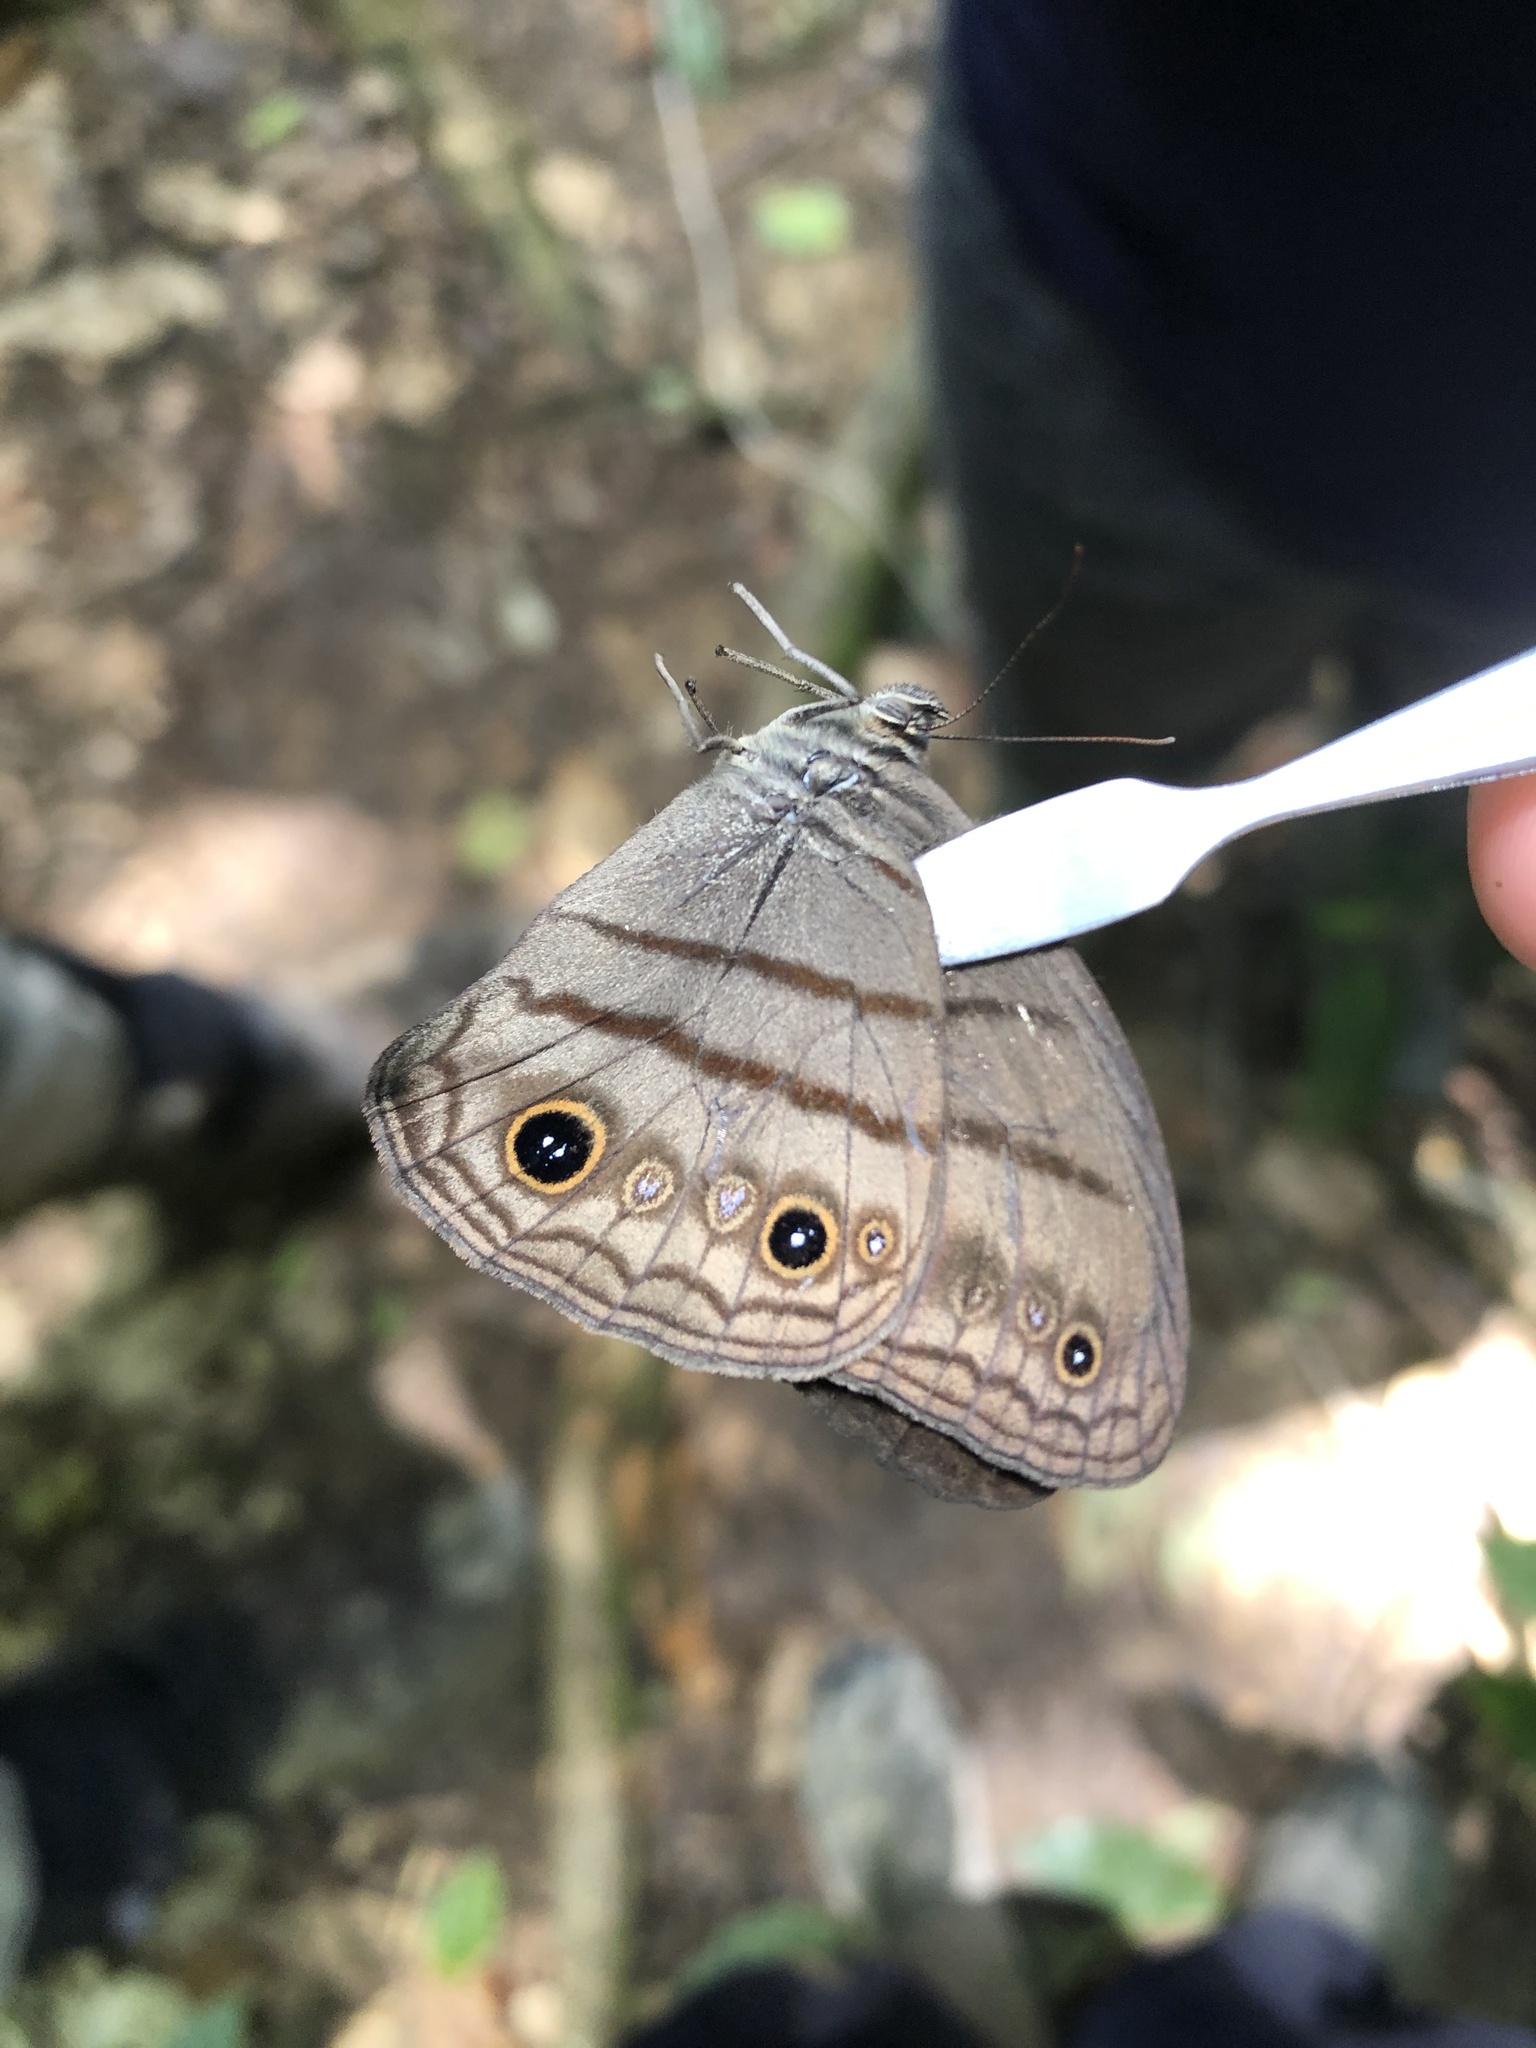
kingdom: Animalia
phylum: Arthropoda
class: Insecta
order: Lepidoptera
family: Nymphalidae
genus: Megeuptychia
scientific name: Megeuptychia antonoe
